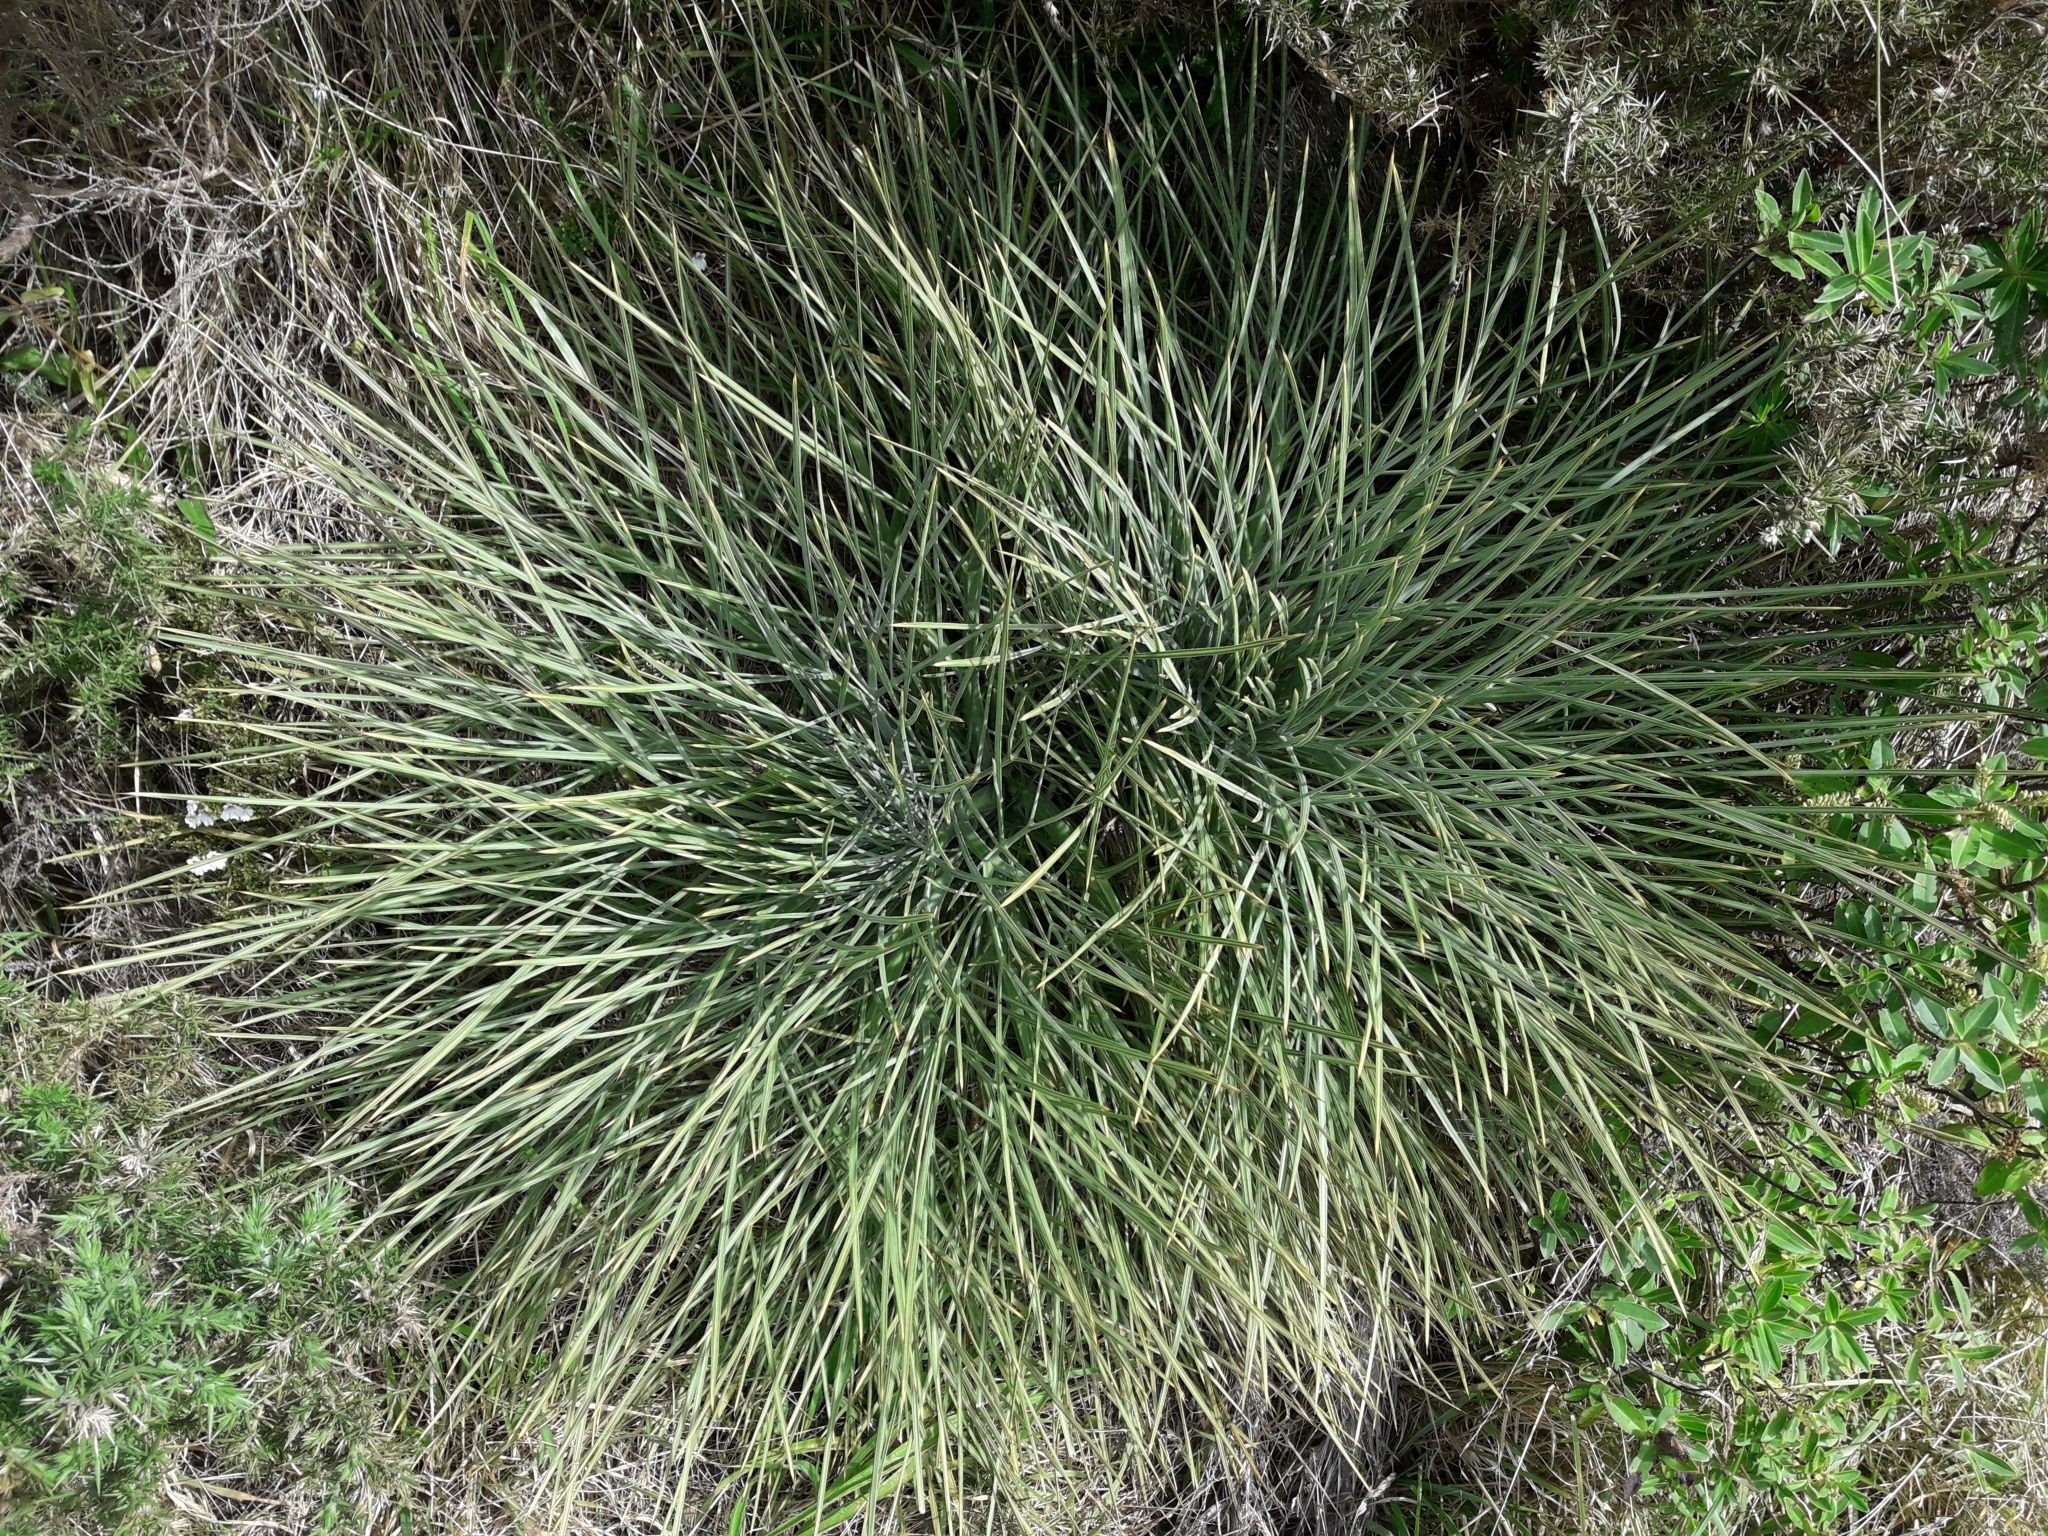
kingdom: Plantae
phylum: Tracheophyta
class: Magnoliopsida
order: Apiales
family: Apiaceae
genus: Aciphylla
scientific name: Aciphylla squarrosa
